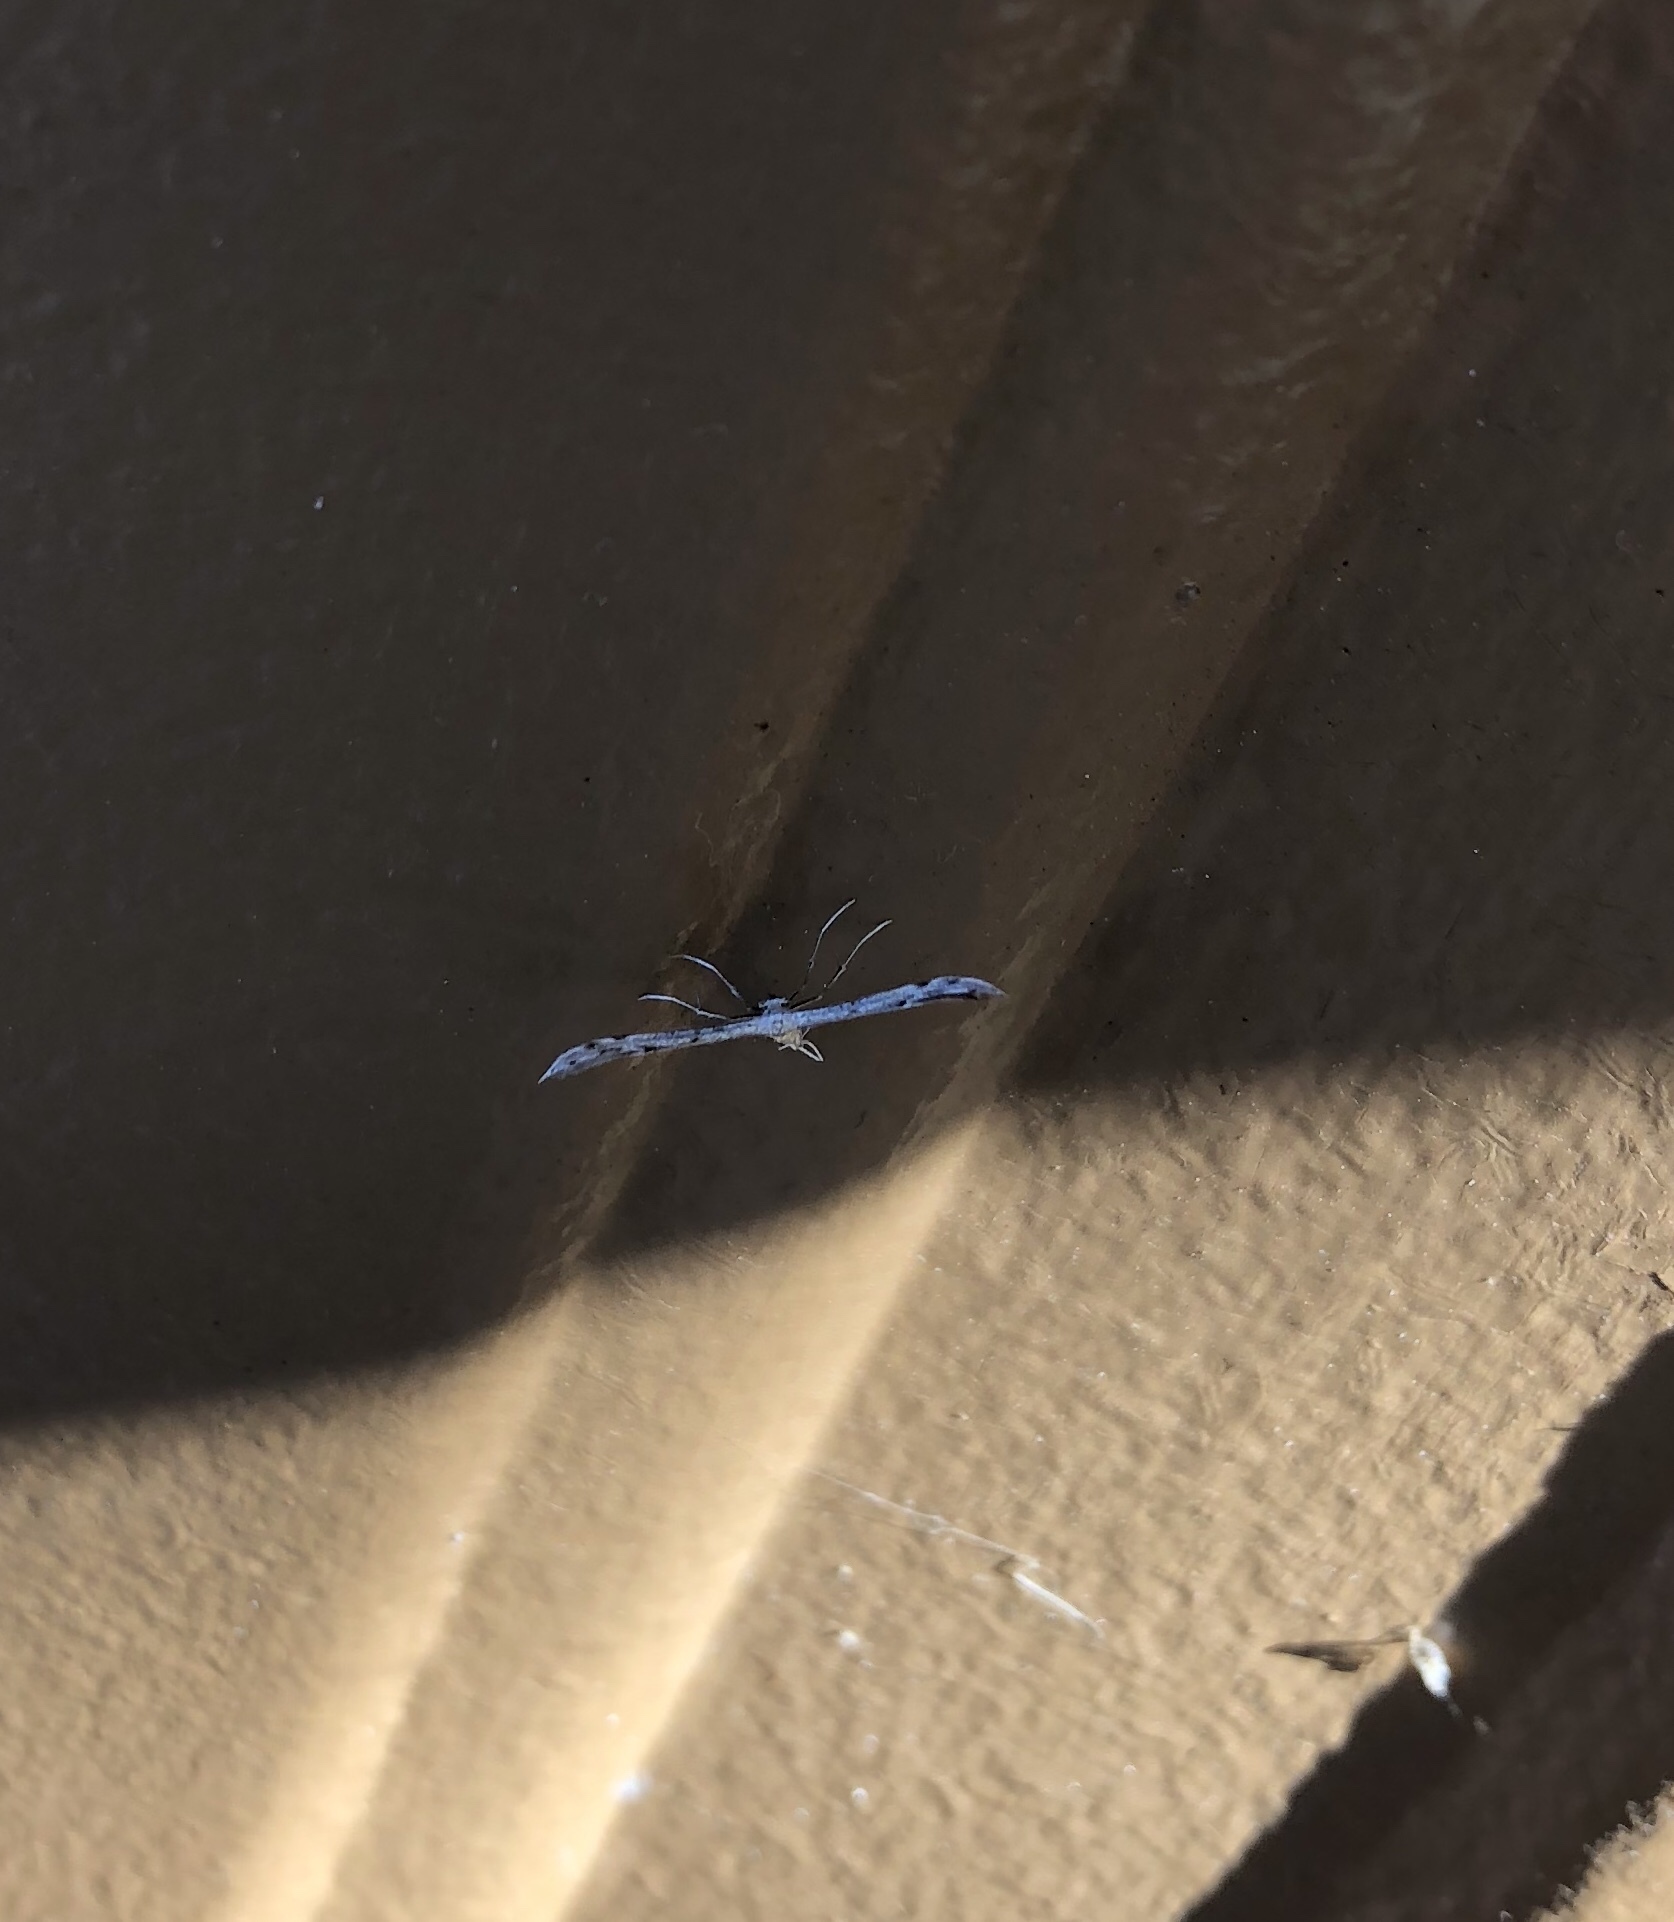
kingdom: Animalia
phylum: Arthropoda
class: Insecta
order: Lepidoptera
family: Pterophoridae
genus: Pselnophorus
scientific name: Pselnophorus belfragei
